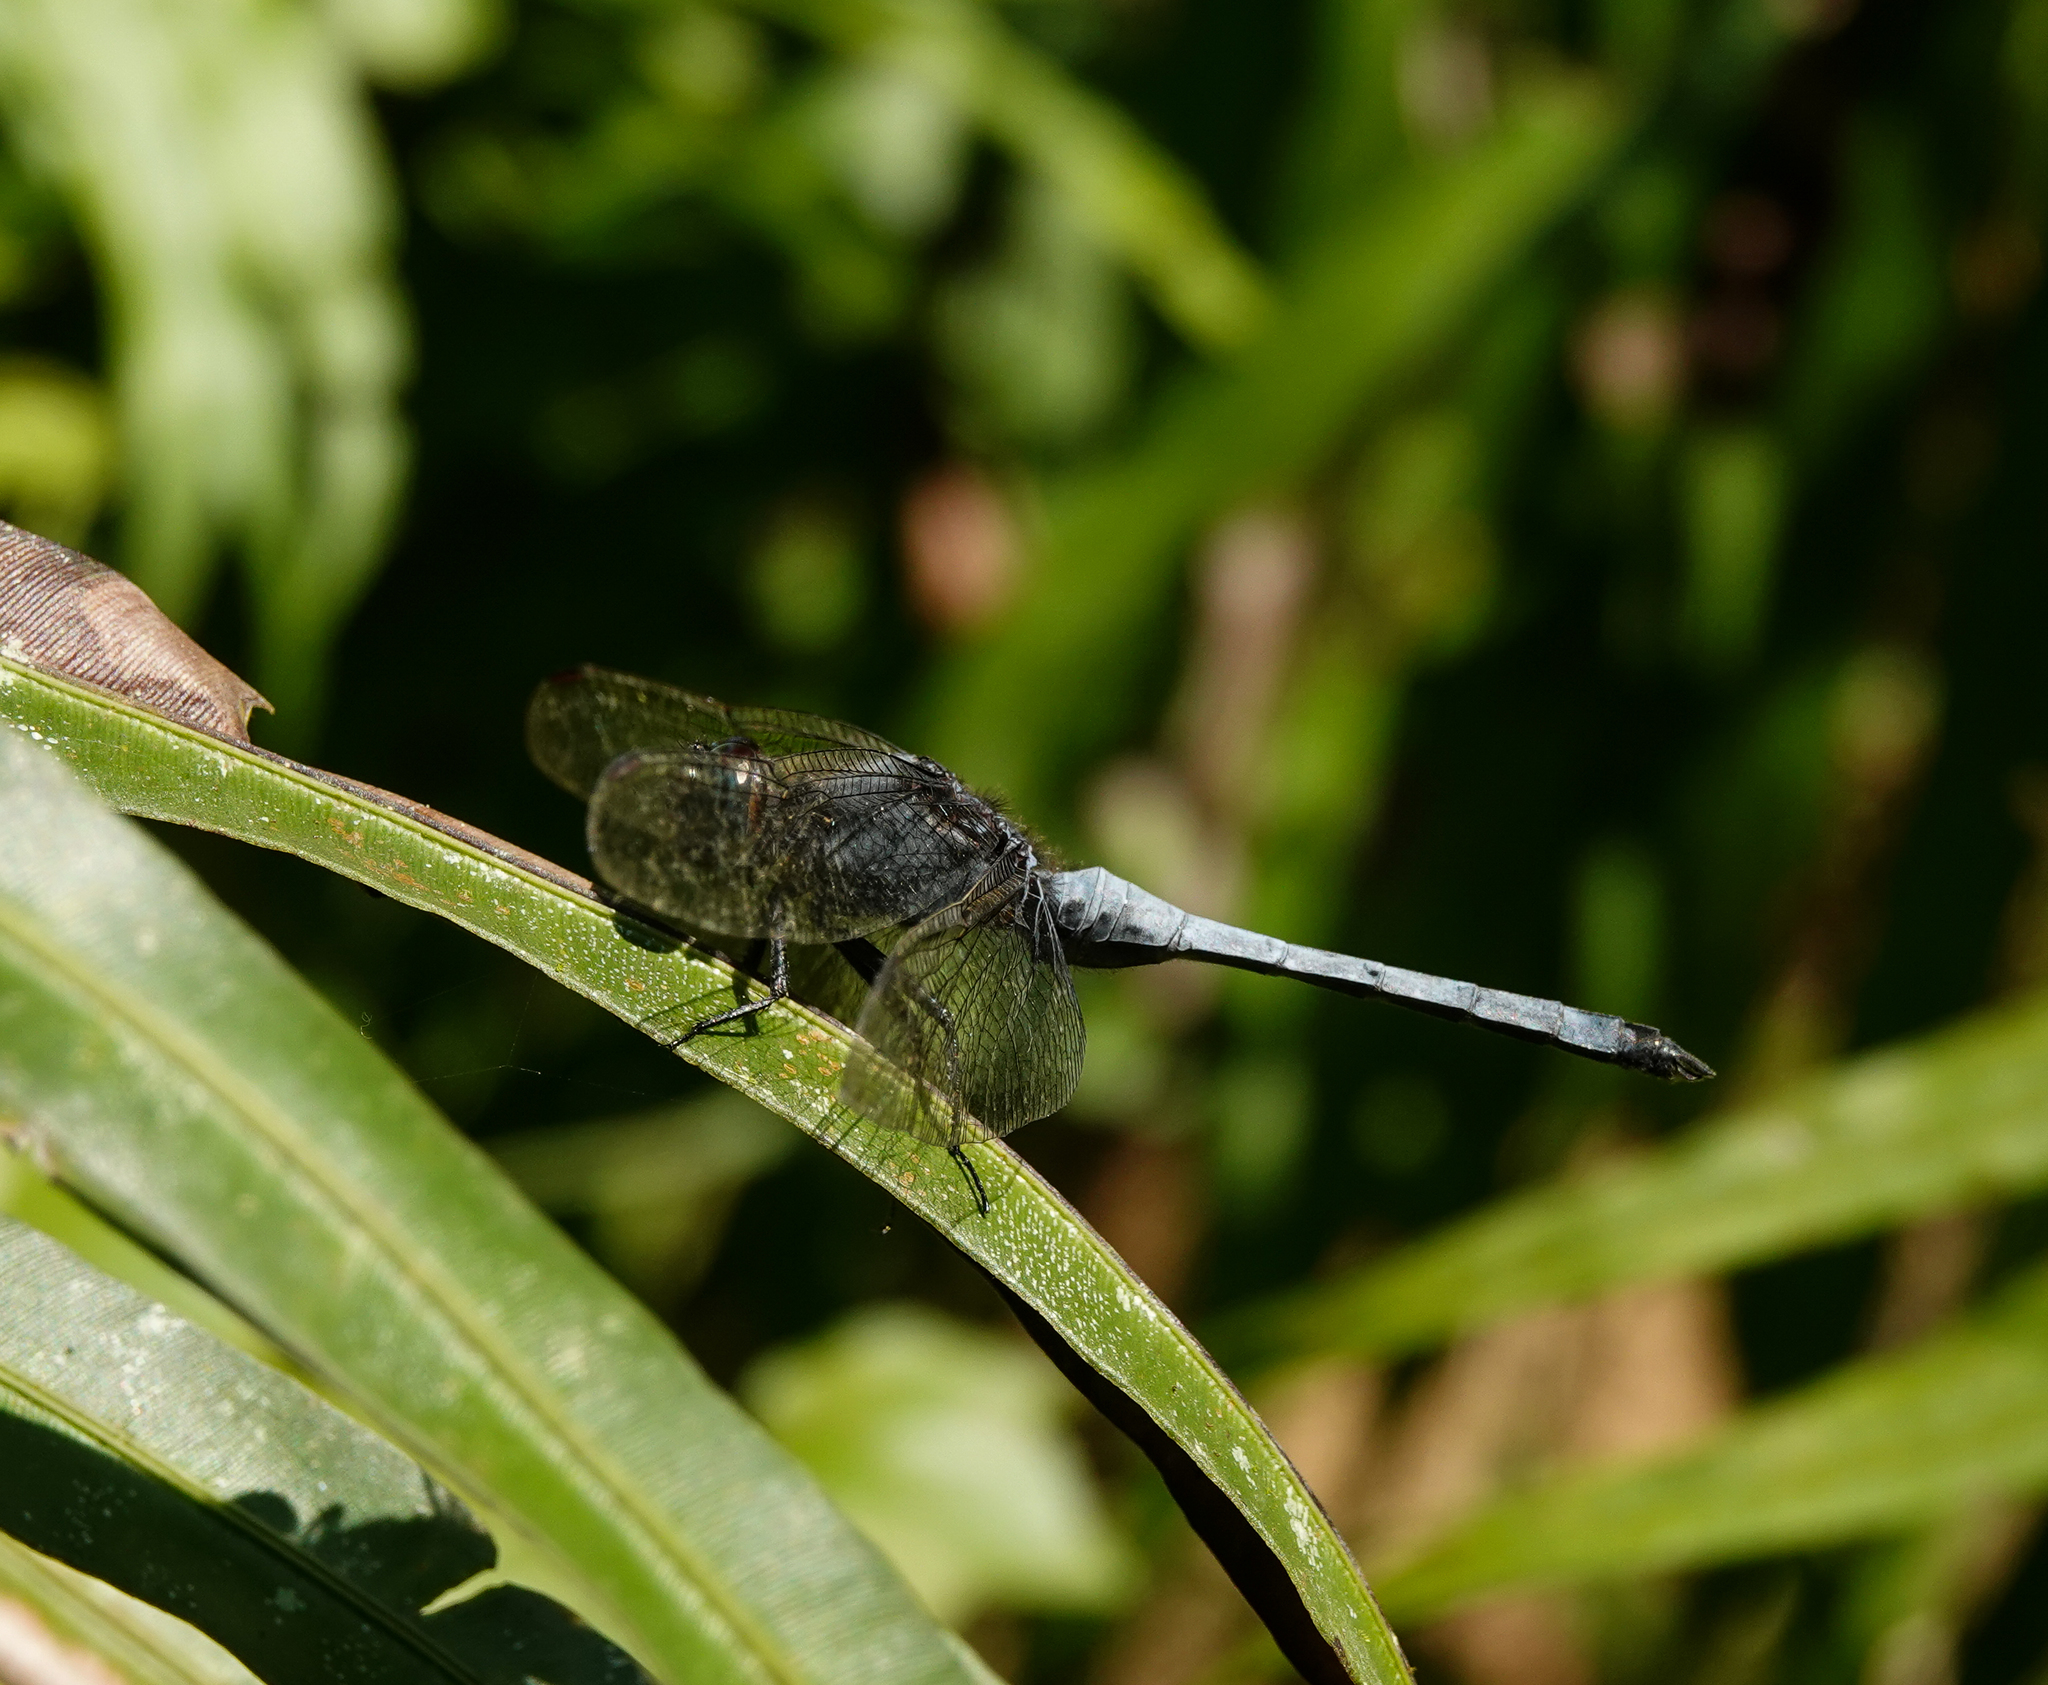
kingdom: Animalia
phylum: Arthropoda
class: Insecta
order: Odonata
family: Libellulidae
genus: Orthetrum
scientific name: Orthetrum glaucum
